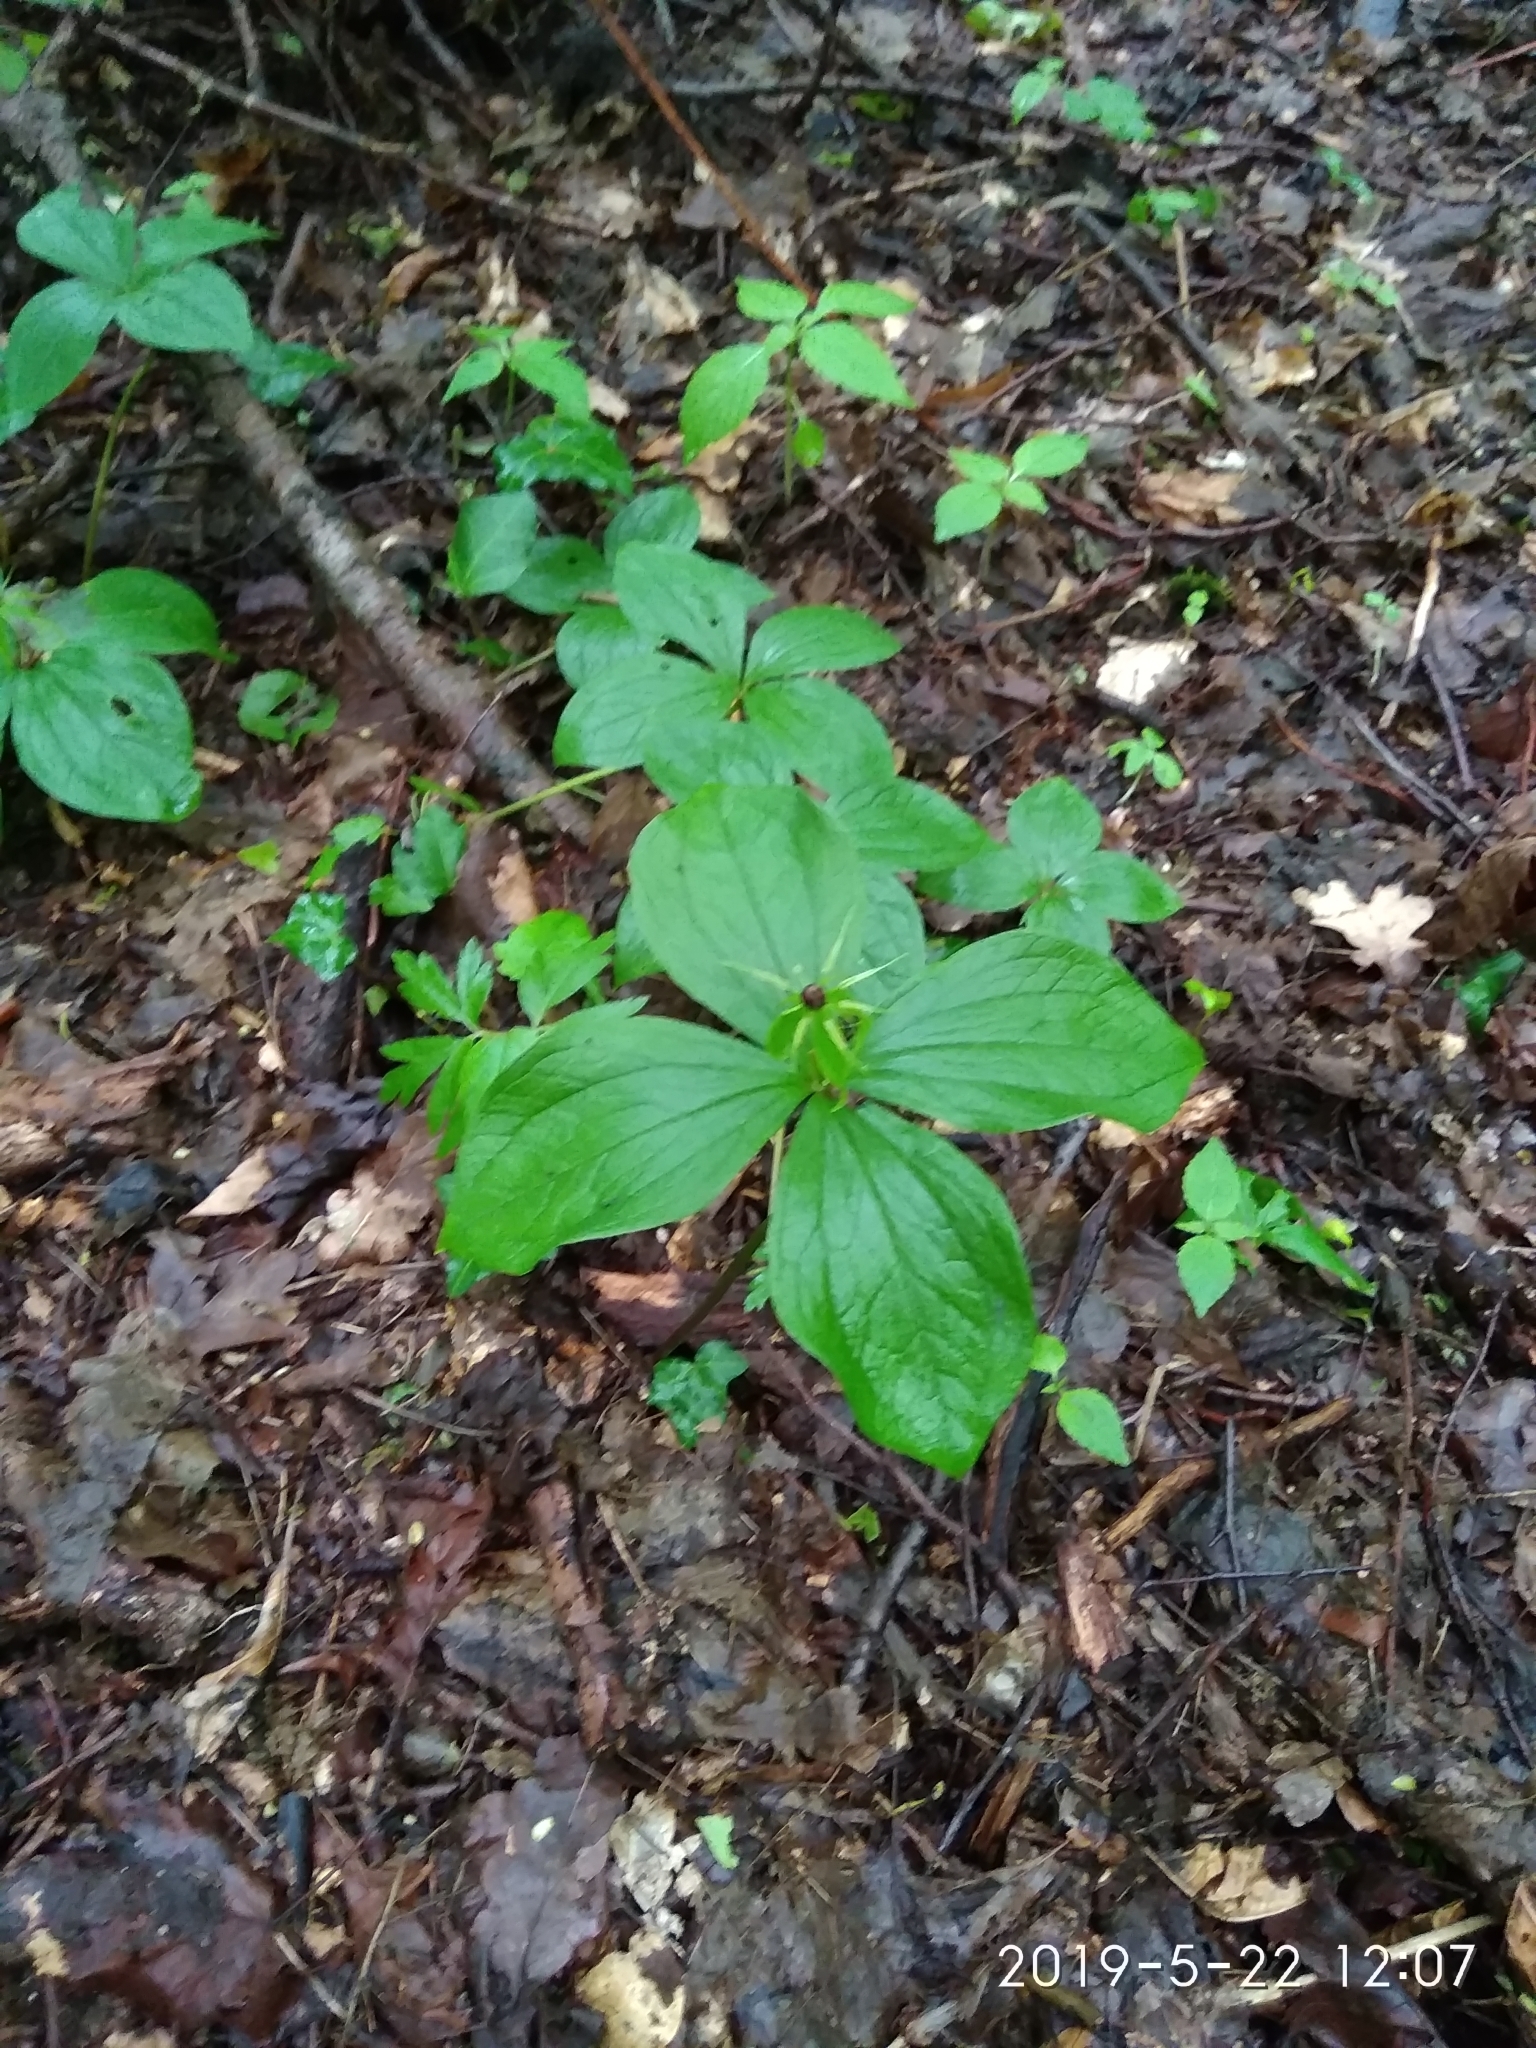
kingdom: Plantae
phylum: Tracheophyta
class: Liliopsida
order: Liliales
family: Melanthiaceae
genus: Paris
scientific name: Paris quadrifolia
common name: Herb-paris
